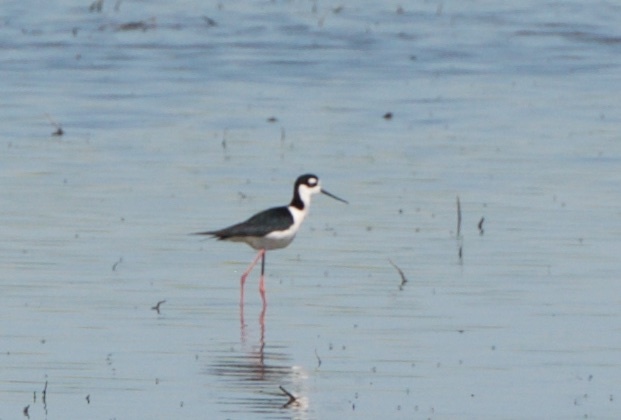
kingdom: Animalia
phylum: Chordata
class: Aves
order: Charadriiformes
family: Recurvirostridae
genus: Himantopus
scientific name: Himantopus mexicanus
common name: Black-necked stilt
